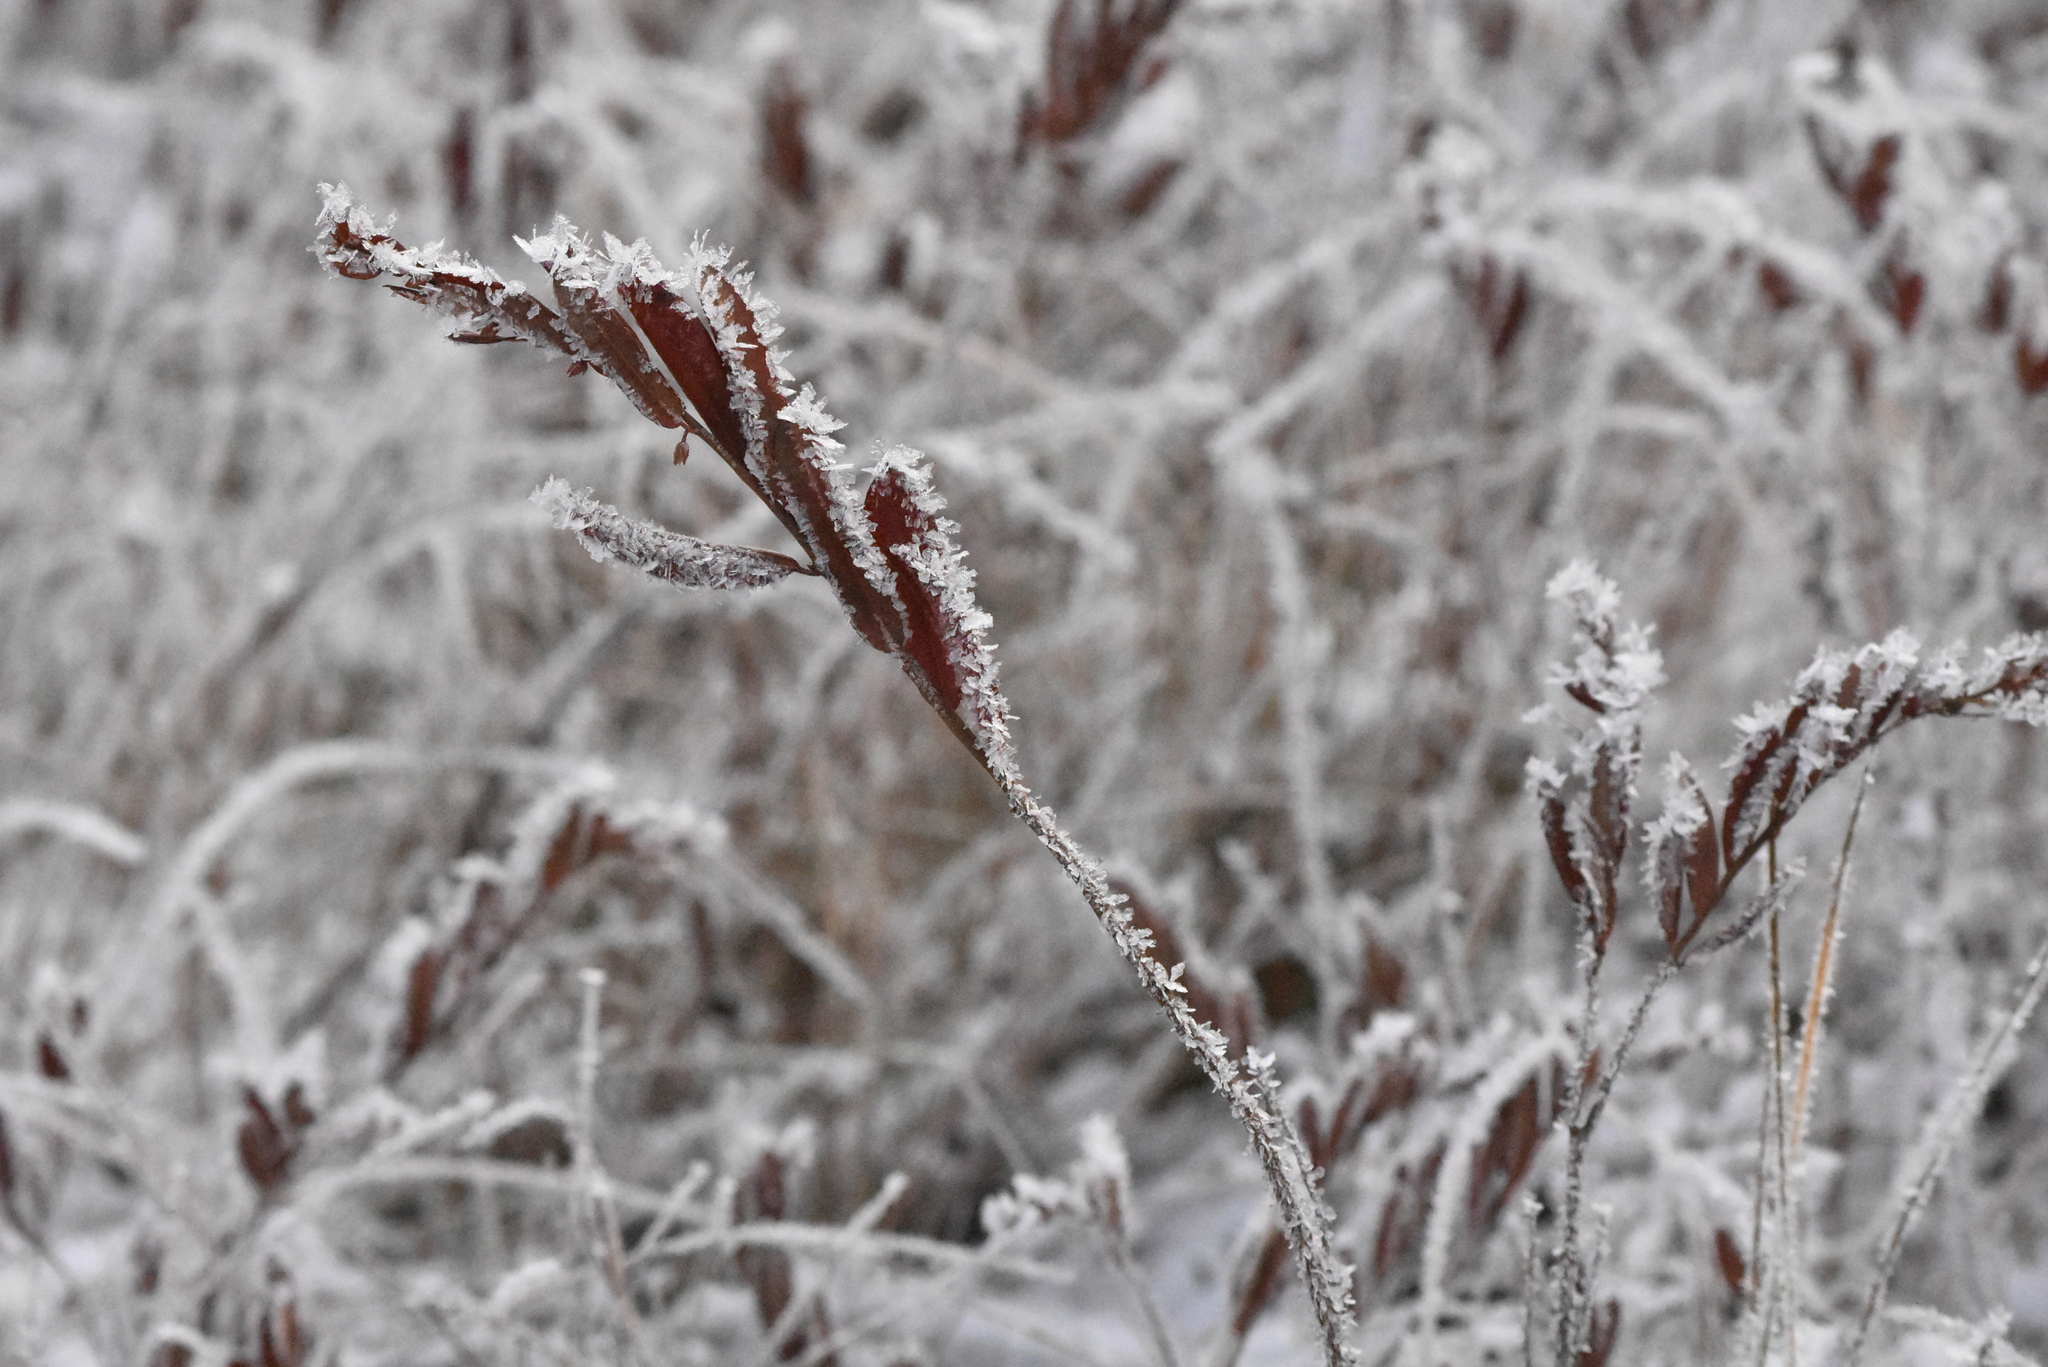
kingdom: Plantae
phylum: Tracheophyta
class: Magnoliopsida
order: Ericales
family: Ericaceae
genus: Chamaedaphne
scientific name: Chamaedaphne calyculata
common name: Leatherleaf
